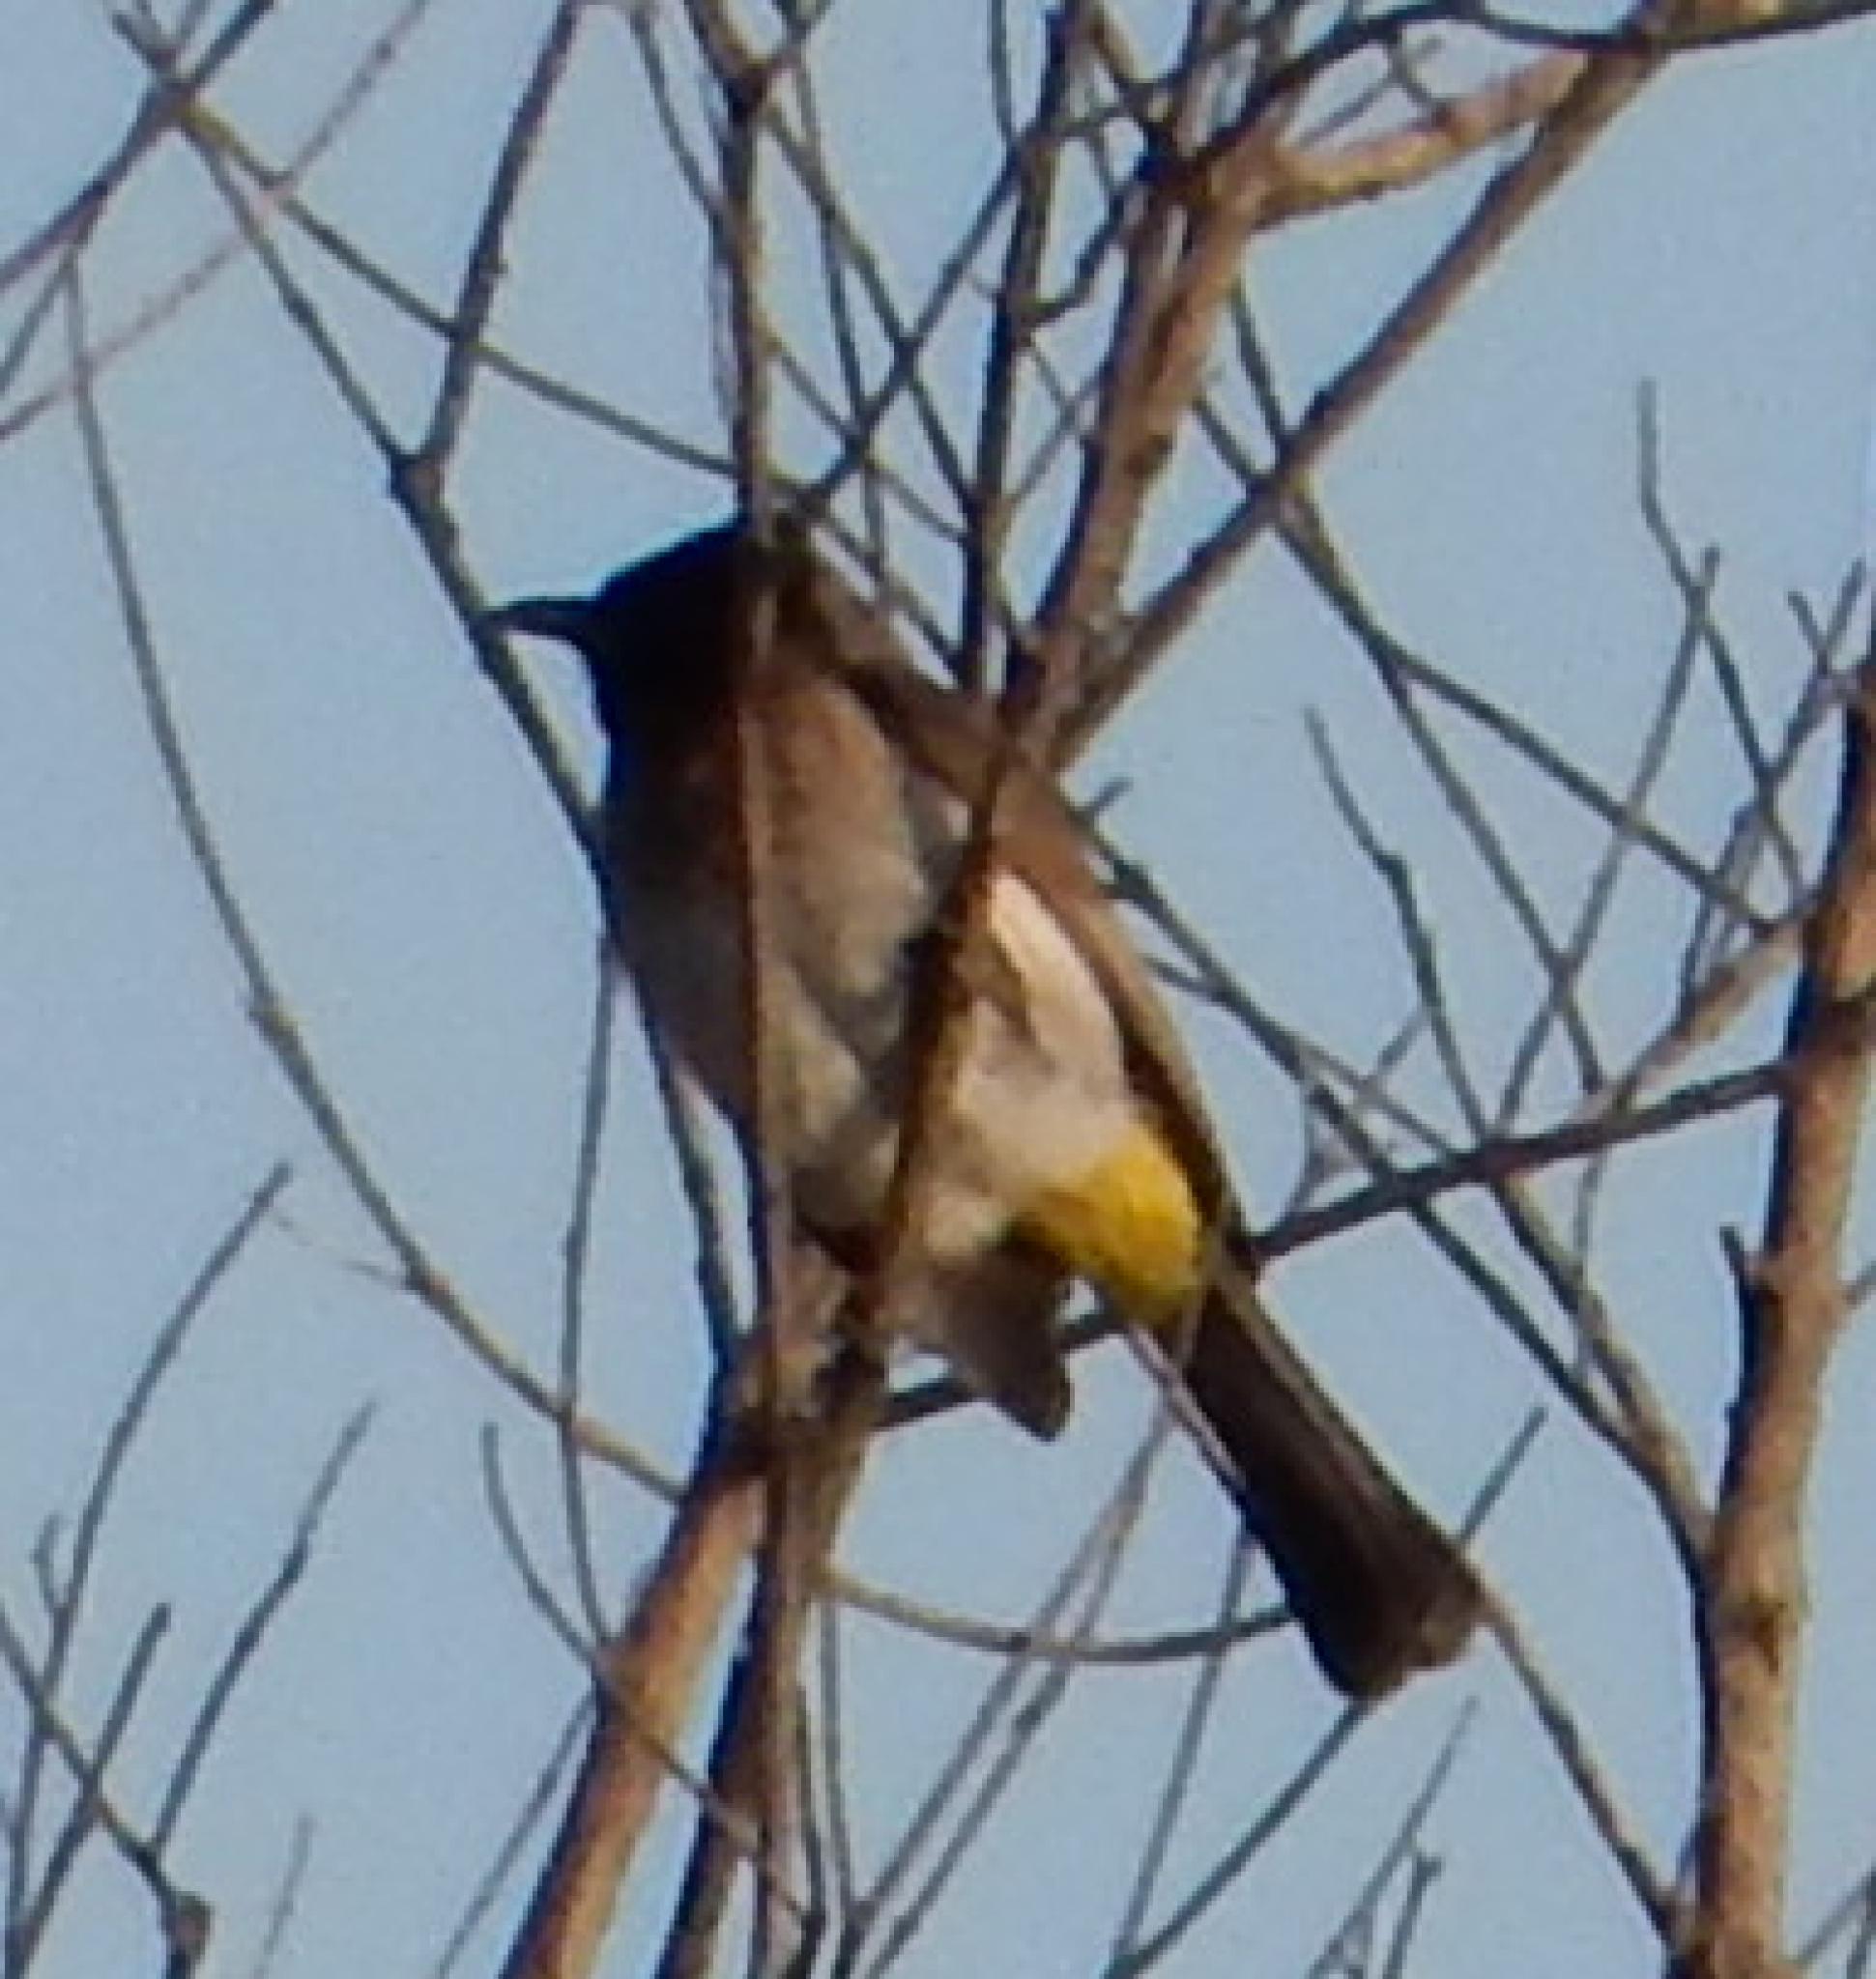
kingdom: Animalia
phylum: Chordata
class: Aves
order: Passeriformes
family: Pycnonotidae
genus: Pycnonotus
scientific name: Pycnonotus barbatus
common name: Common bulbul
